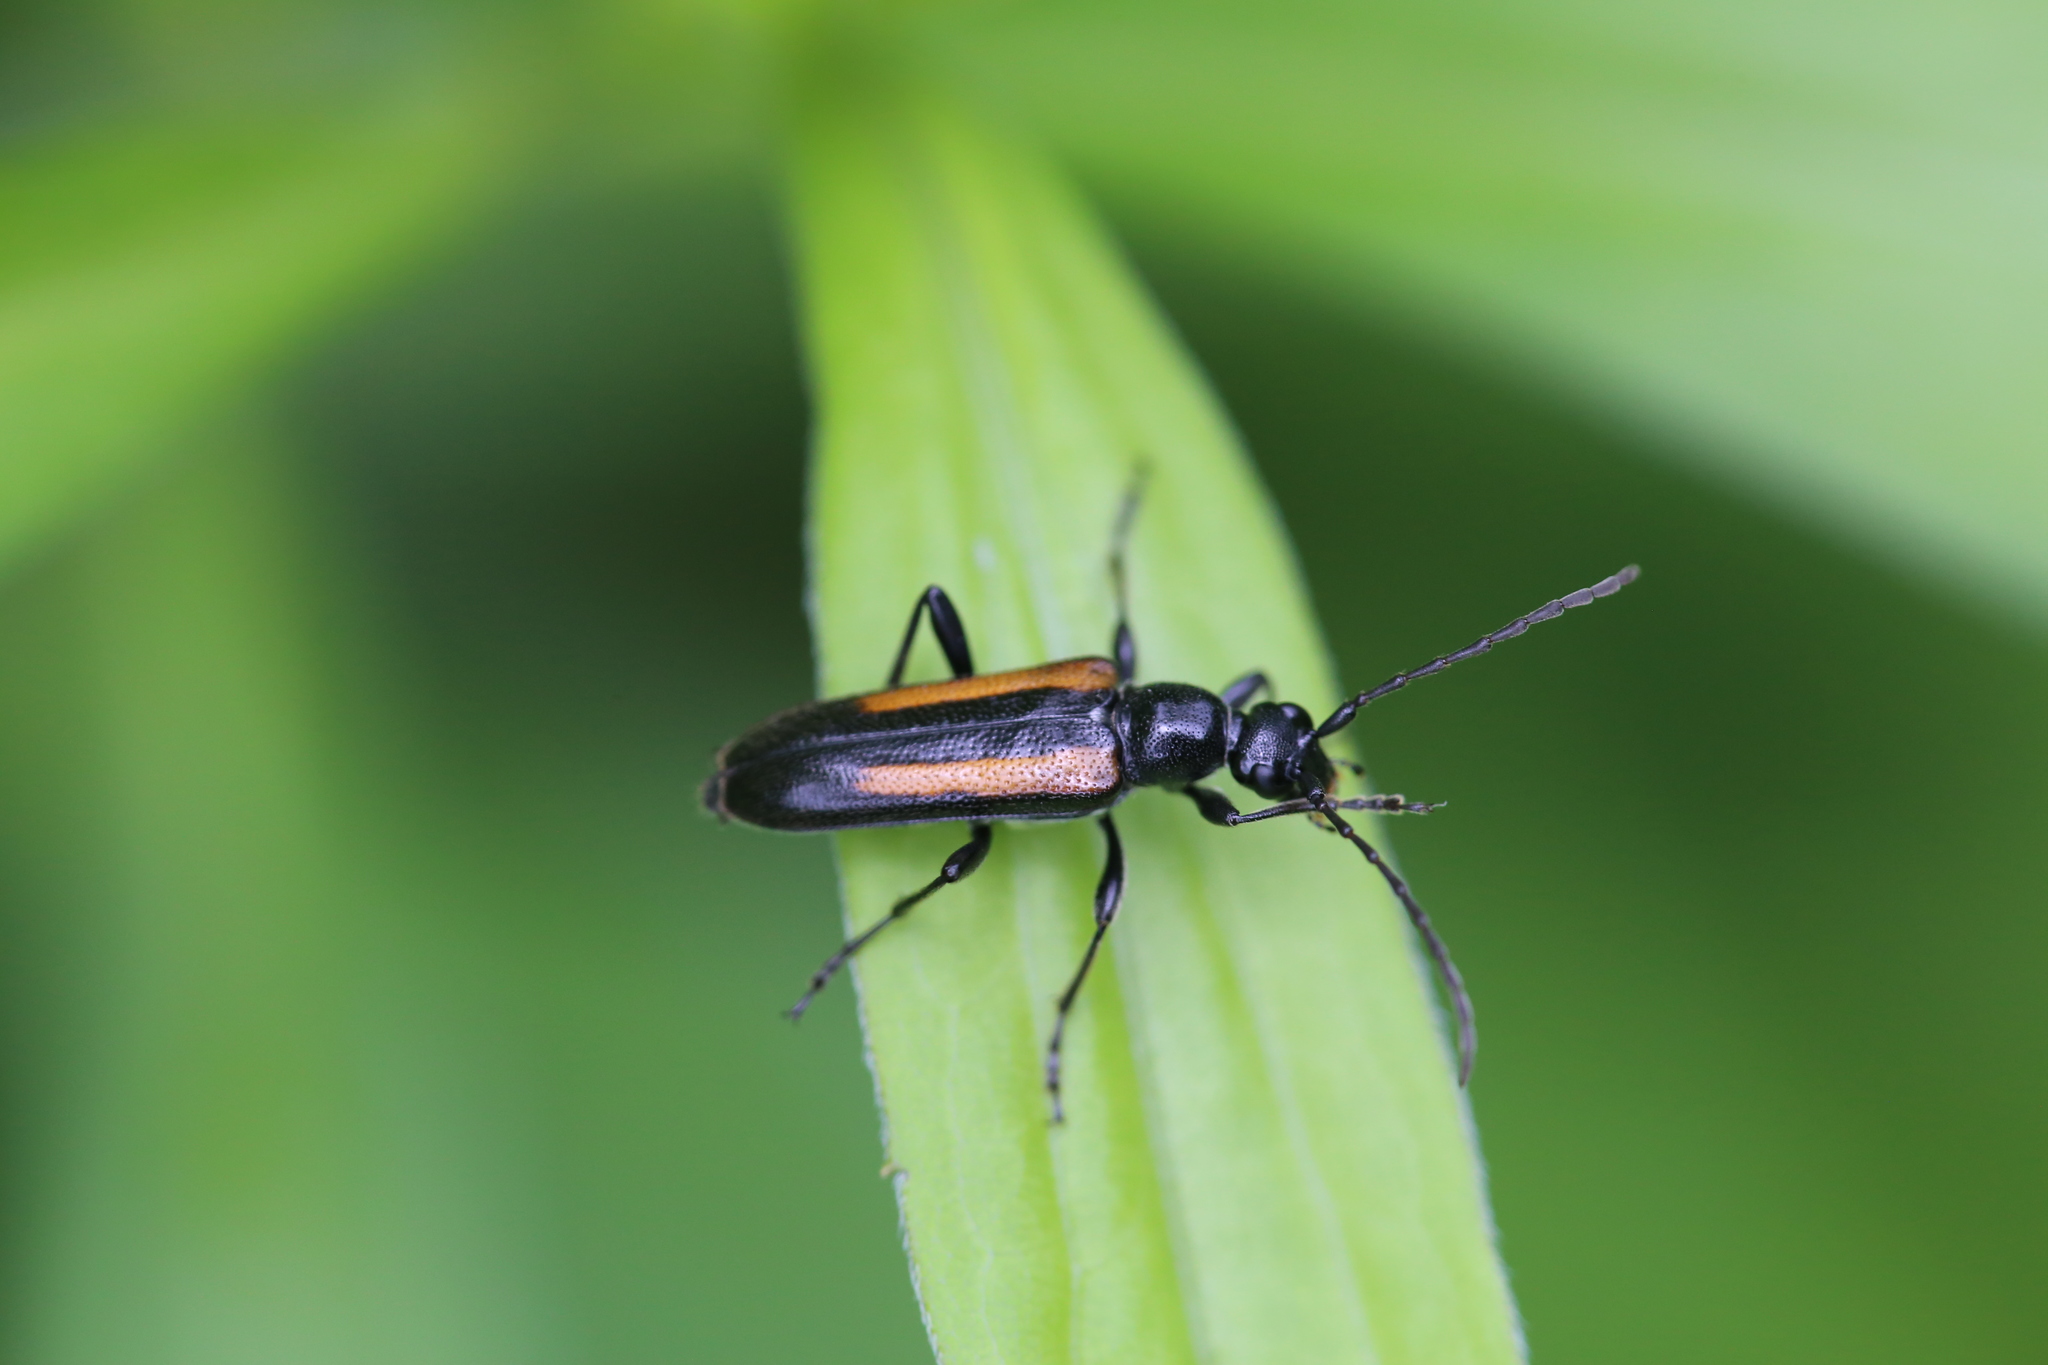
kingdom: Animalia
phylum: Arthropoda
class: Insecta
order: Coleoptera
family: Cerambycidae
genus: Strangalepta
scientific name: Strangalepta abbreviata
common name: Strangalepta flower longhorn beetle
